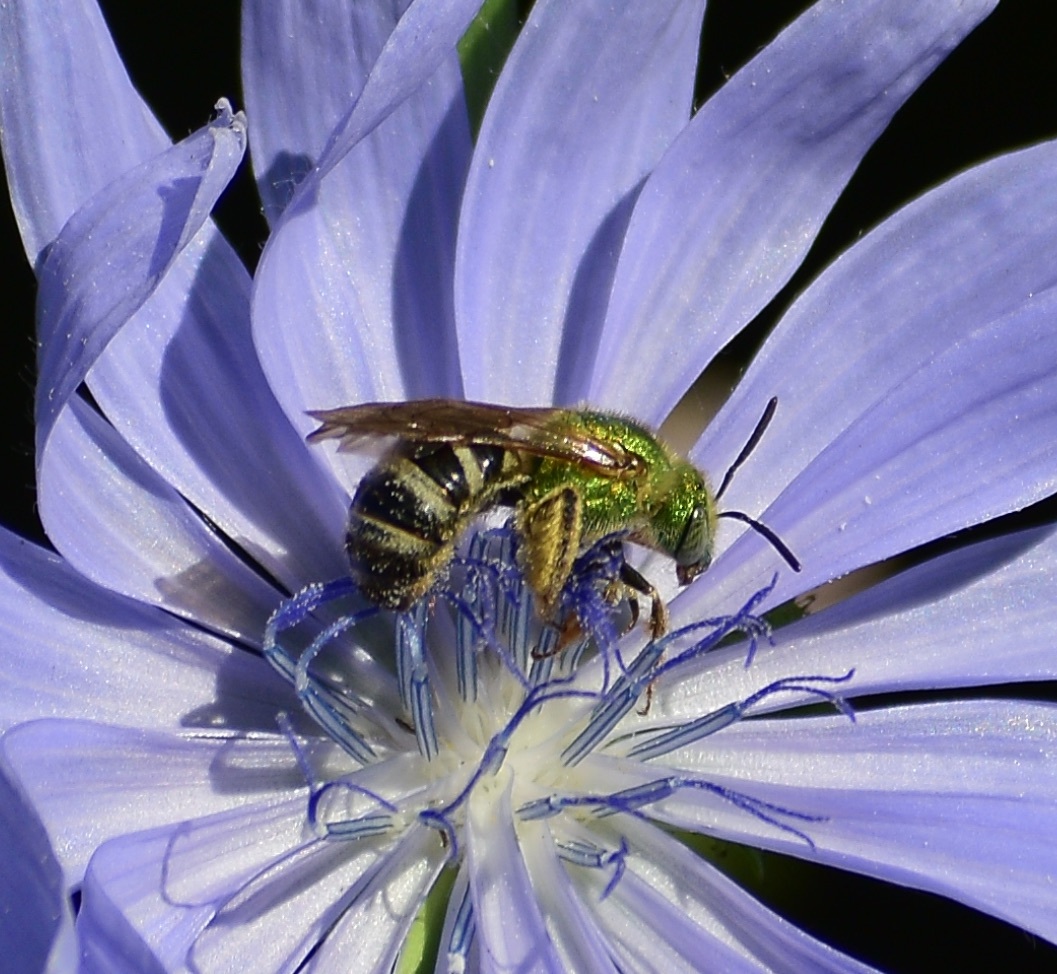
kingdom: Animalia
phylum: Arthropoda
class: Insecta
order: Hymenoptera
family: Halictidae
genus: Agapostemon
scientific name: Agapostemon virescens
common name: Bicolored striped sweat bee
